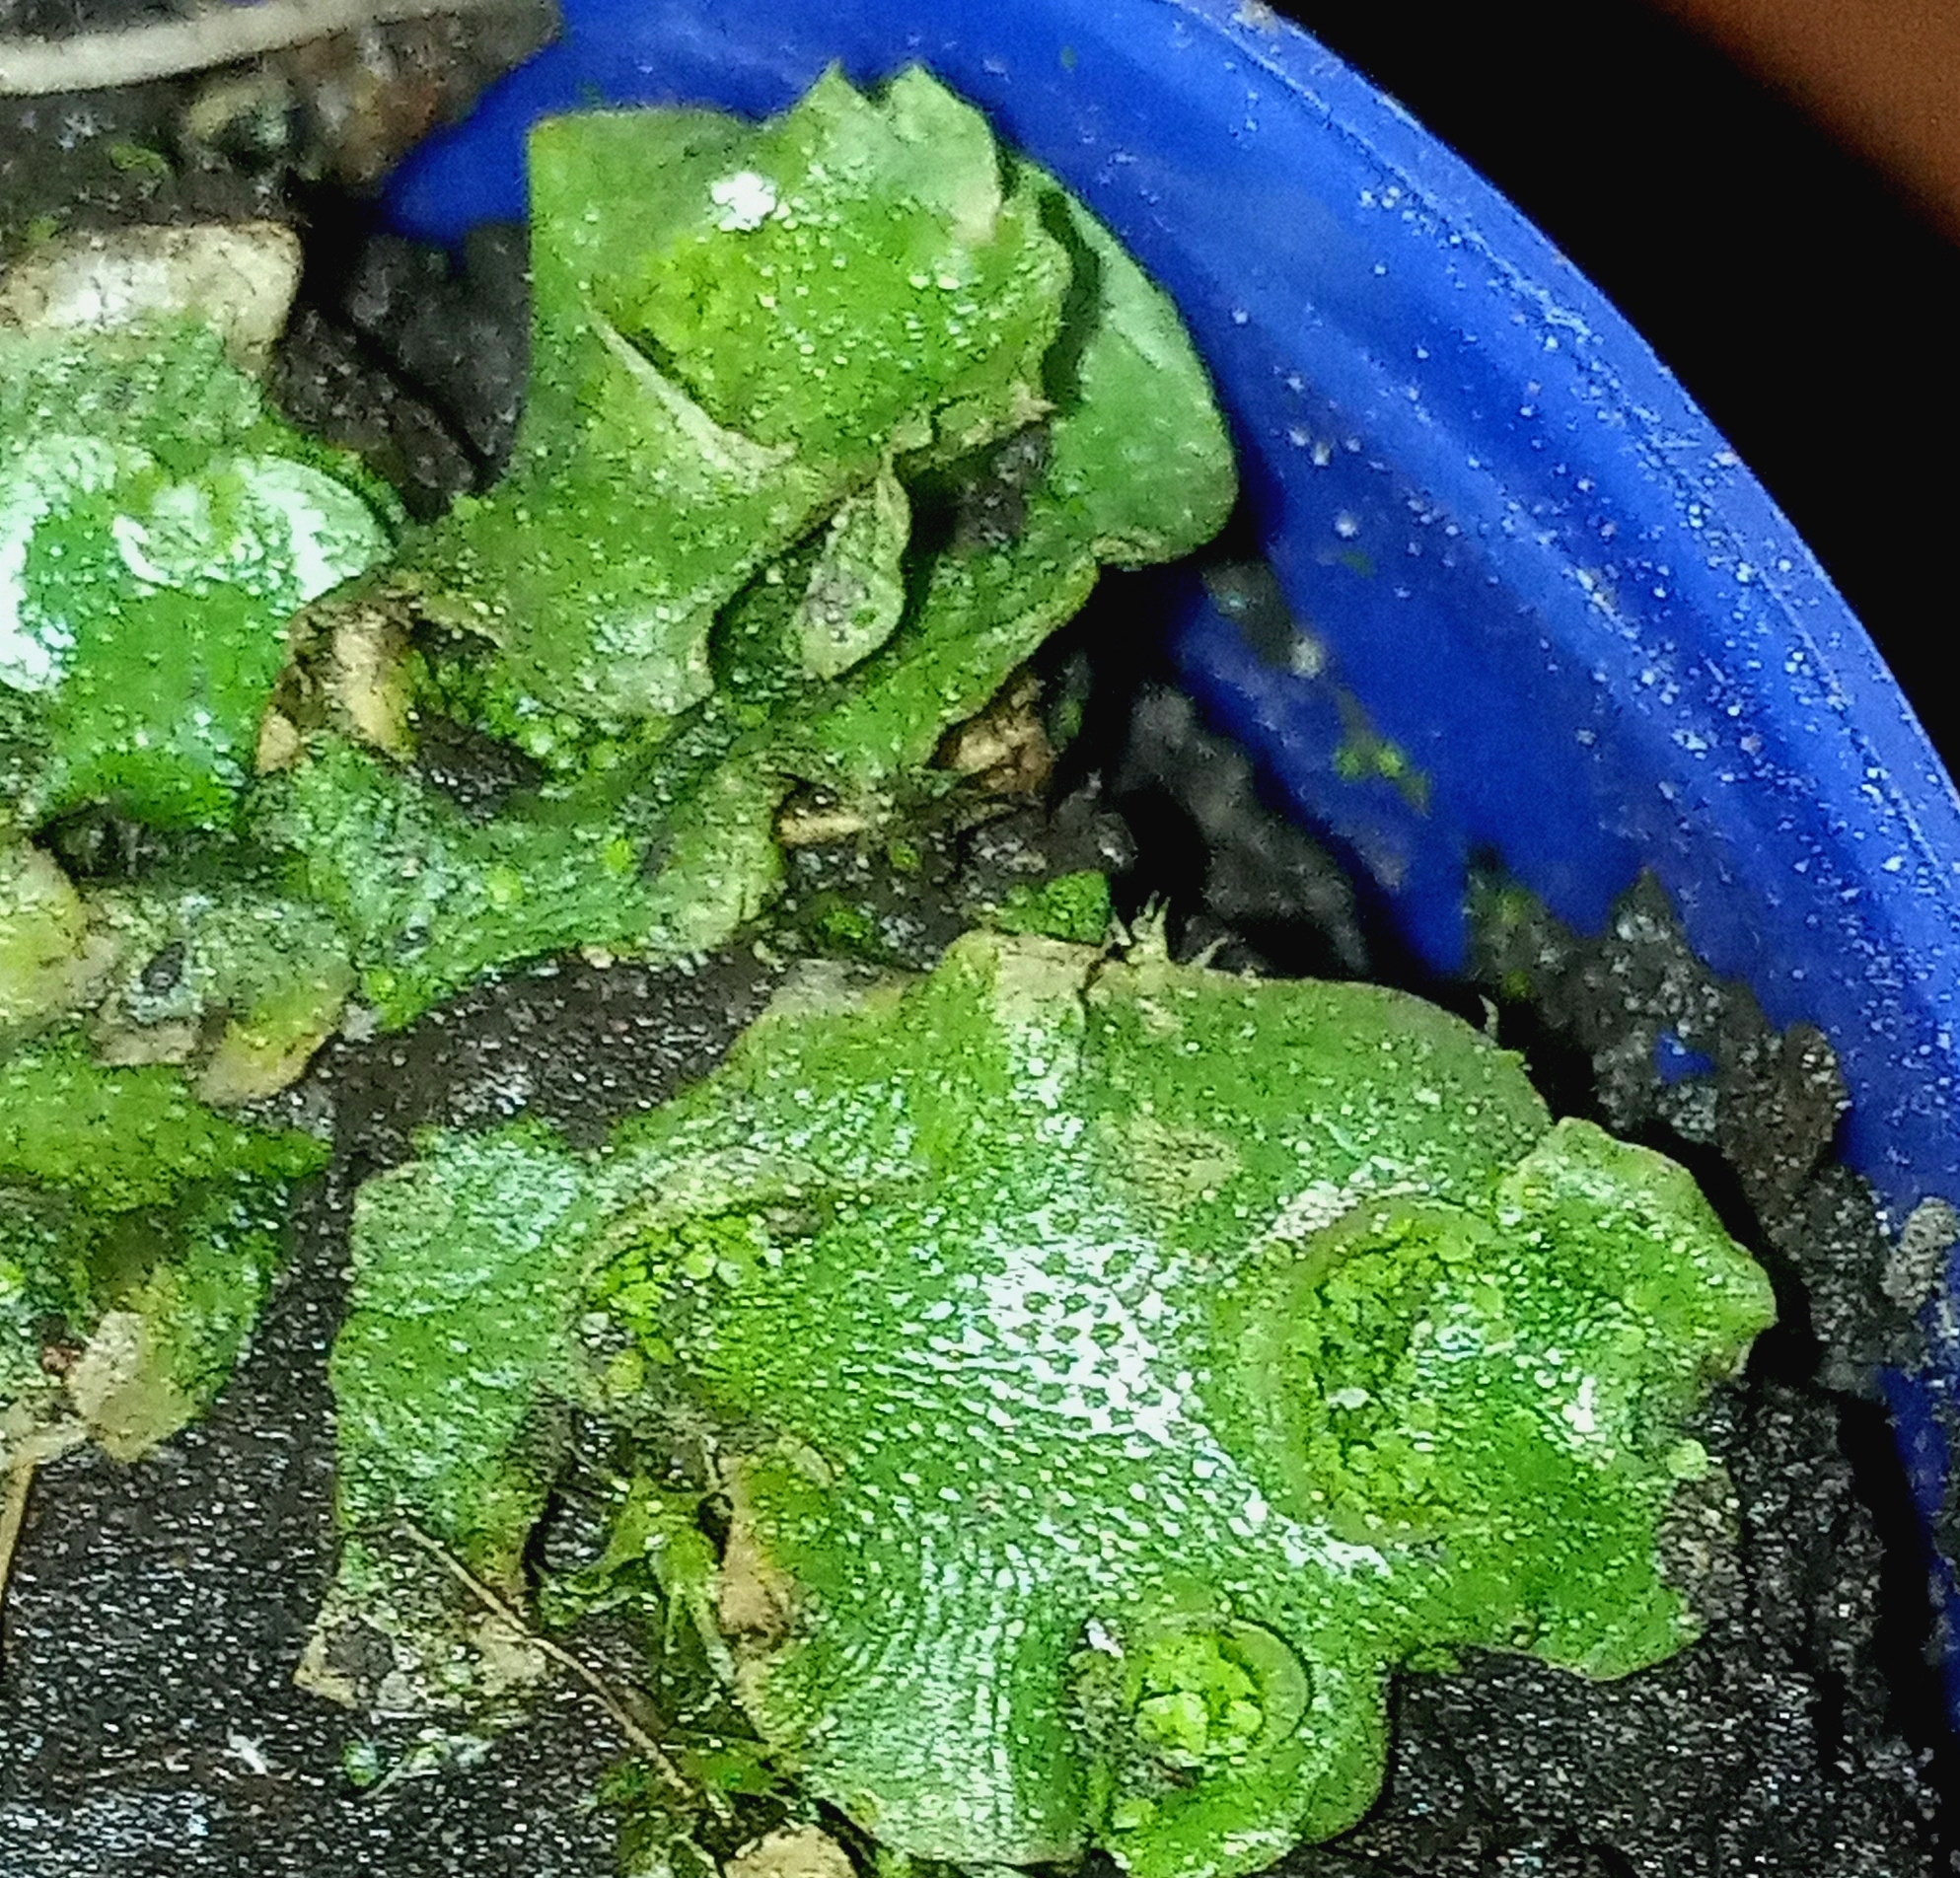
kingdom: Plantae
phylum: Marchantiophyta
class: Marchantiopsida
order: Lunulariales
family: Lunulariaceae
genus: Lunularia
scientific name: Lunularia cruciata
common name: Crescent-cup liverwort
